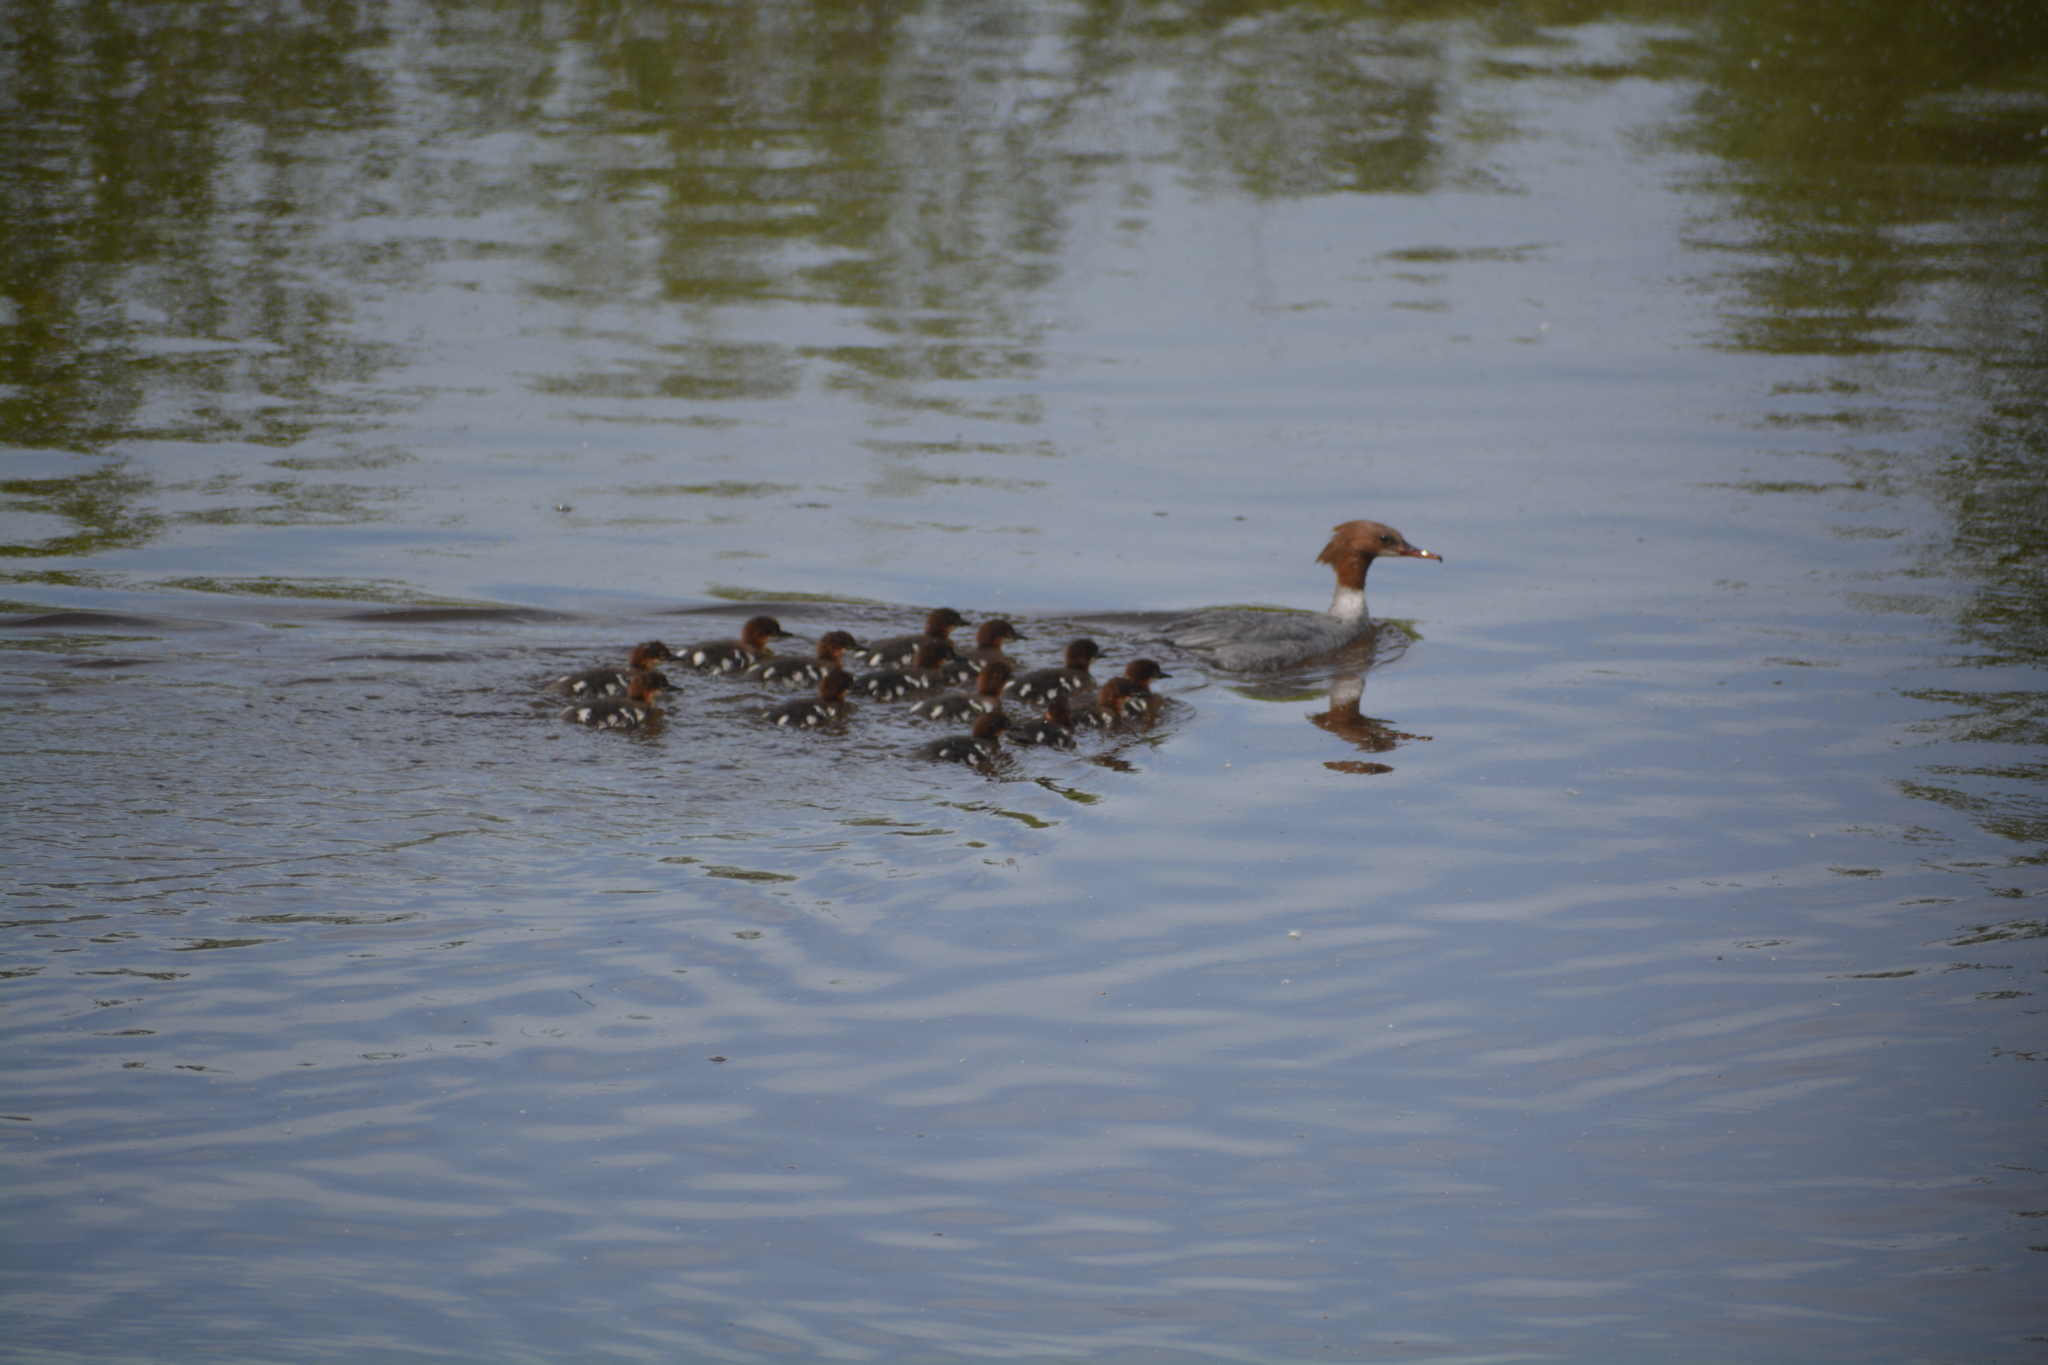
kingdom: Animalia
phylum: Chordata
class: Aves
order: Anseriformes
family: Anatidae
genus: Mergus
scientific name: Mergus merganser
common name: Common merganser
